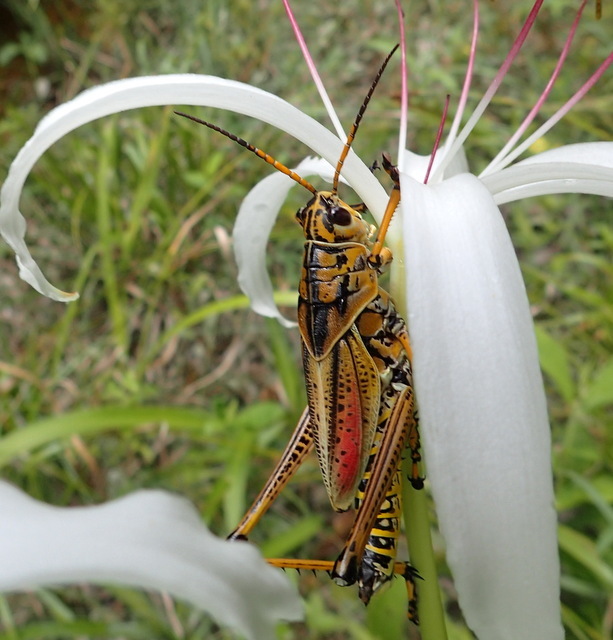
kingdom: Animalia
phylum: Arthropoda
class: Insecta
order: Orthoptera
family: Romaleidae
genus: Romalea
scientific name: Romalea microptera
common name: Eastern lubber grasshopper
